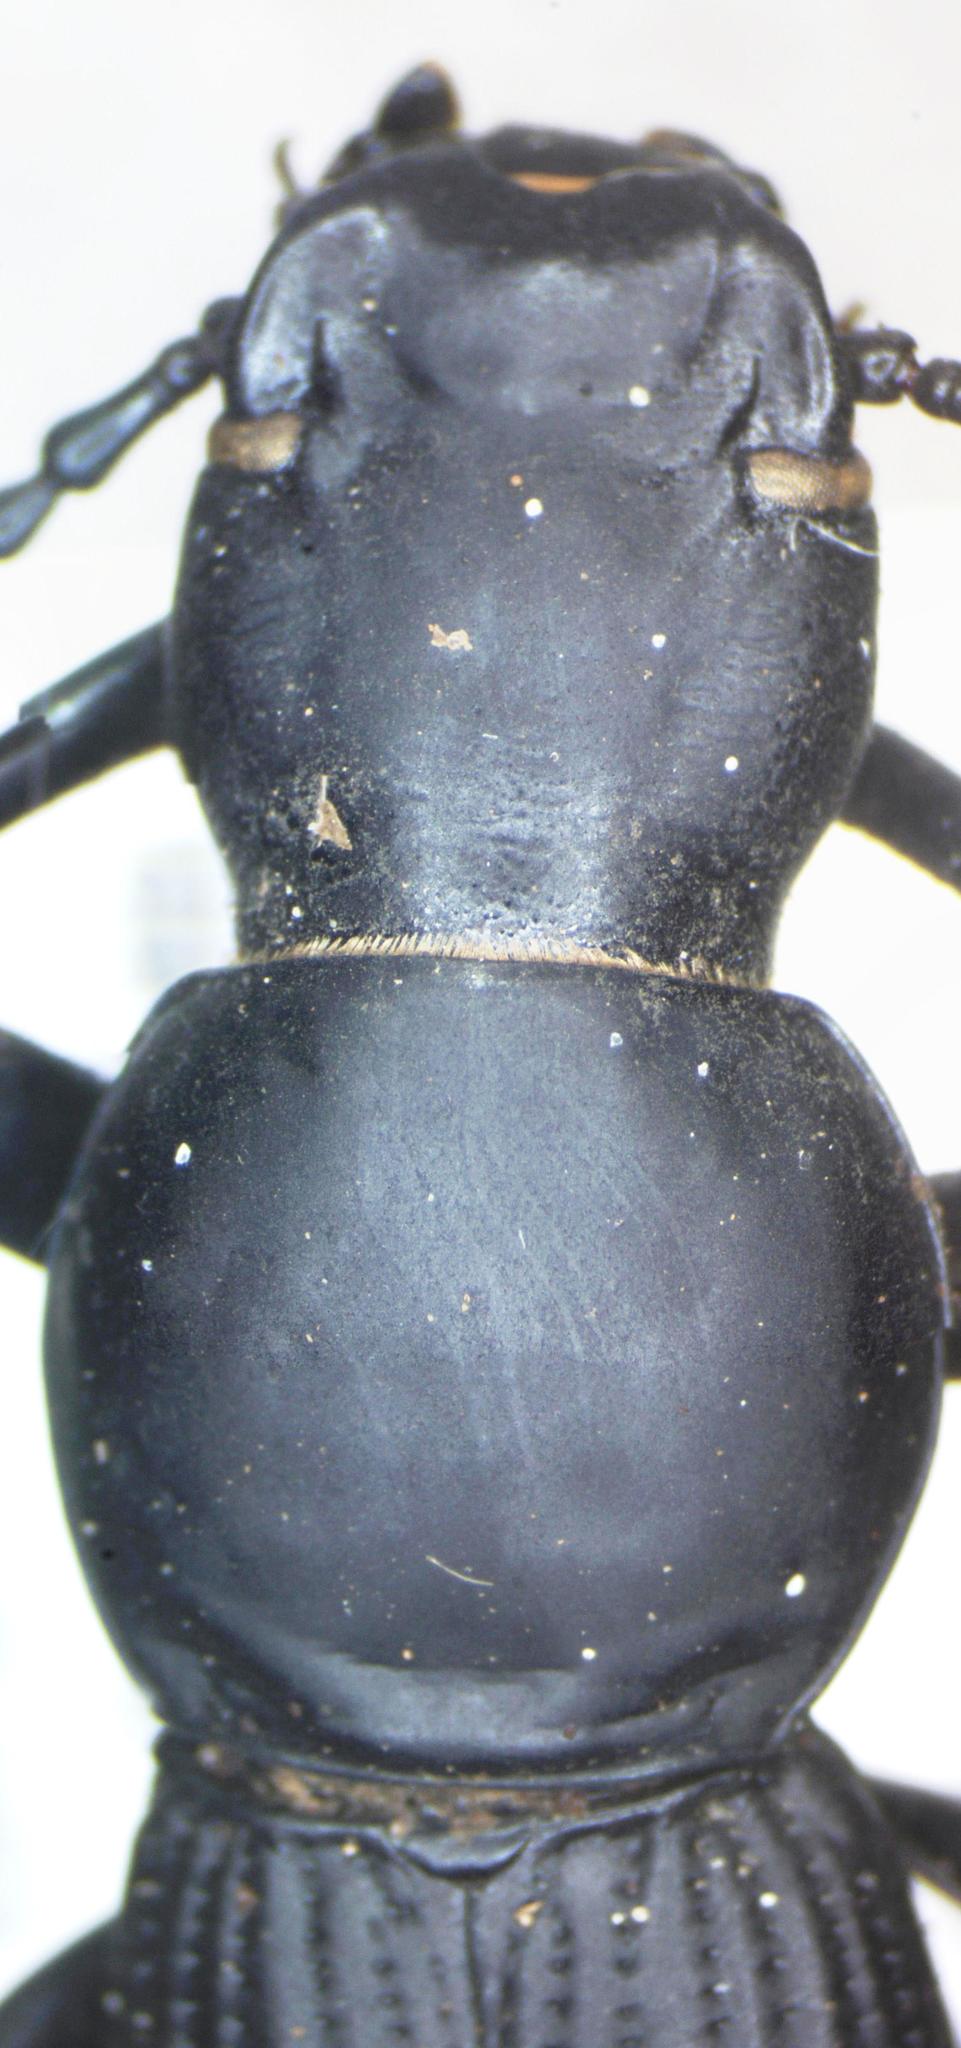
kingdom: Animalia
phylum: Arthropoda
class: Insecta
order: Coleoptera
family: Tenebrionidae
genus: Rhinandrus
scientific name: Rhinandrus elongatus
